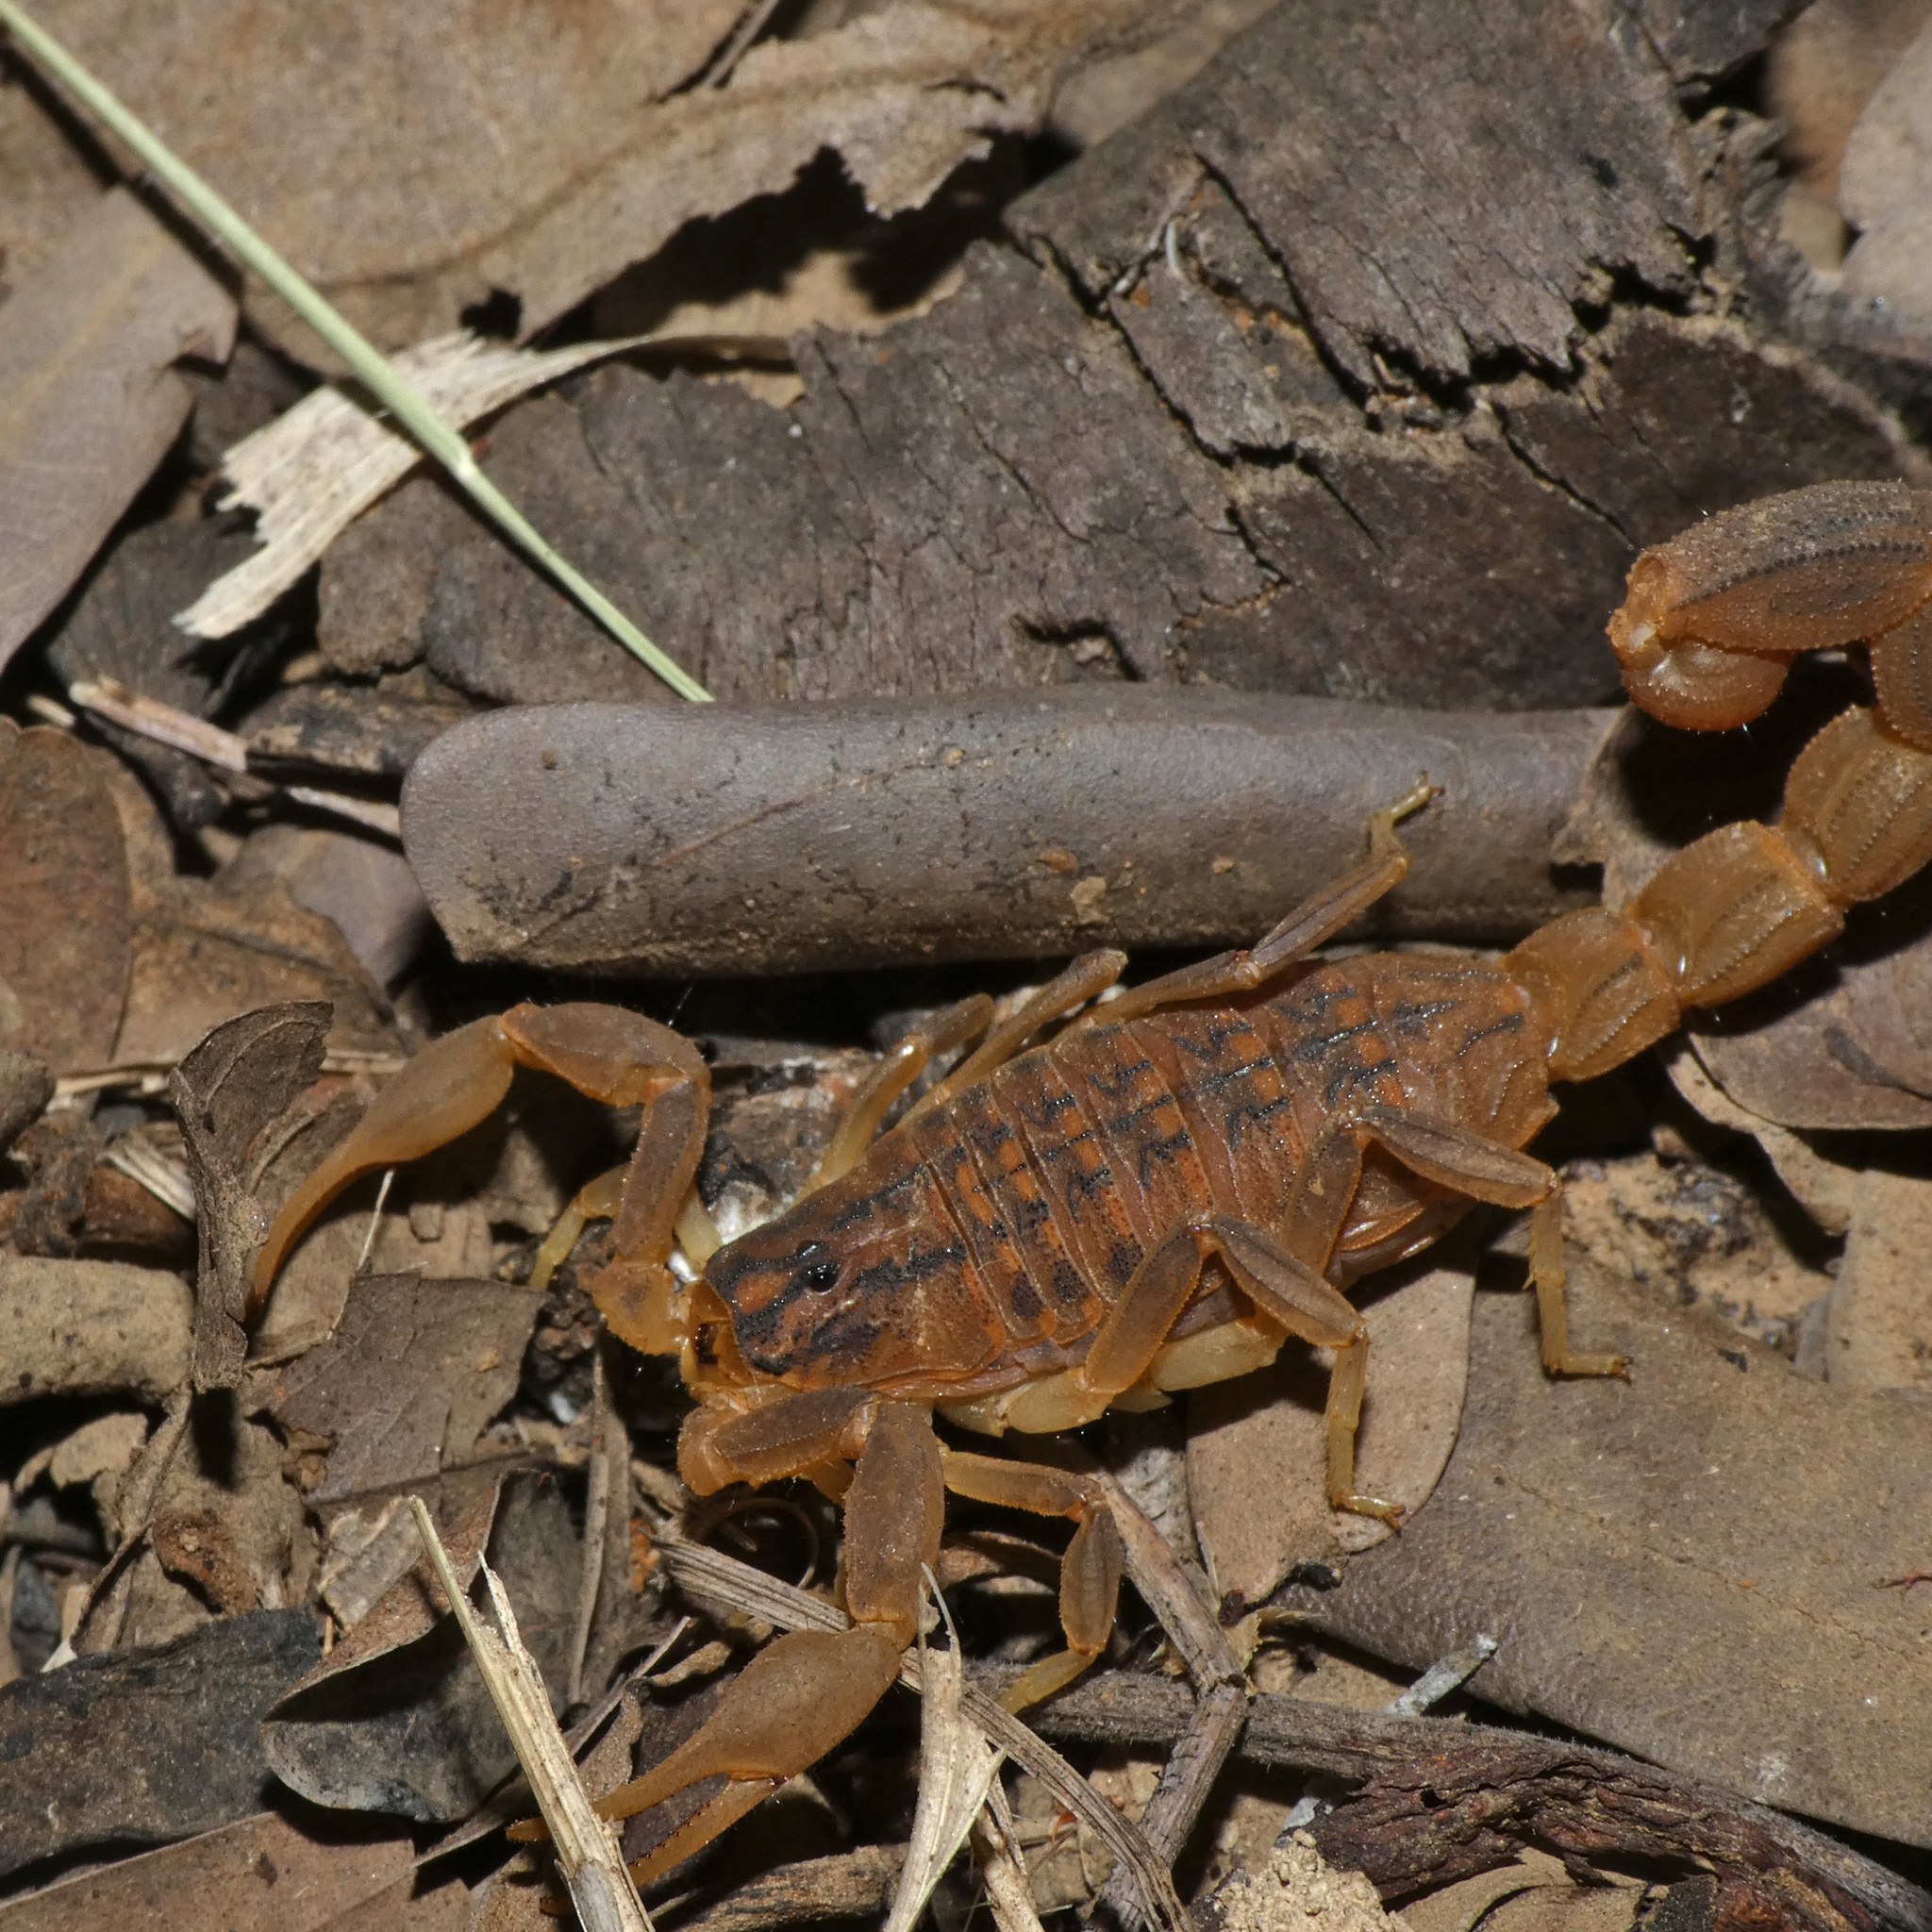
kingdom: Animalia
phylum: Arthropoda
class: Arachnida
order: Scorpiones
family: Buthidae
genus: Hottentotta
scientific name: Hottentotta trilineatus
